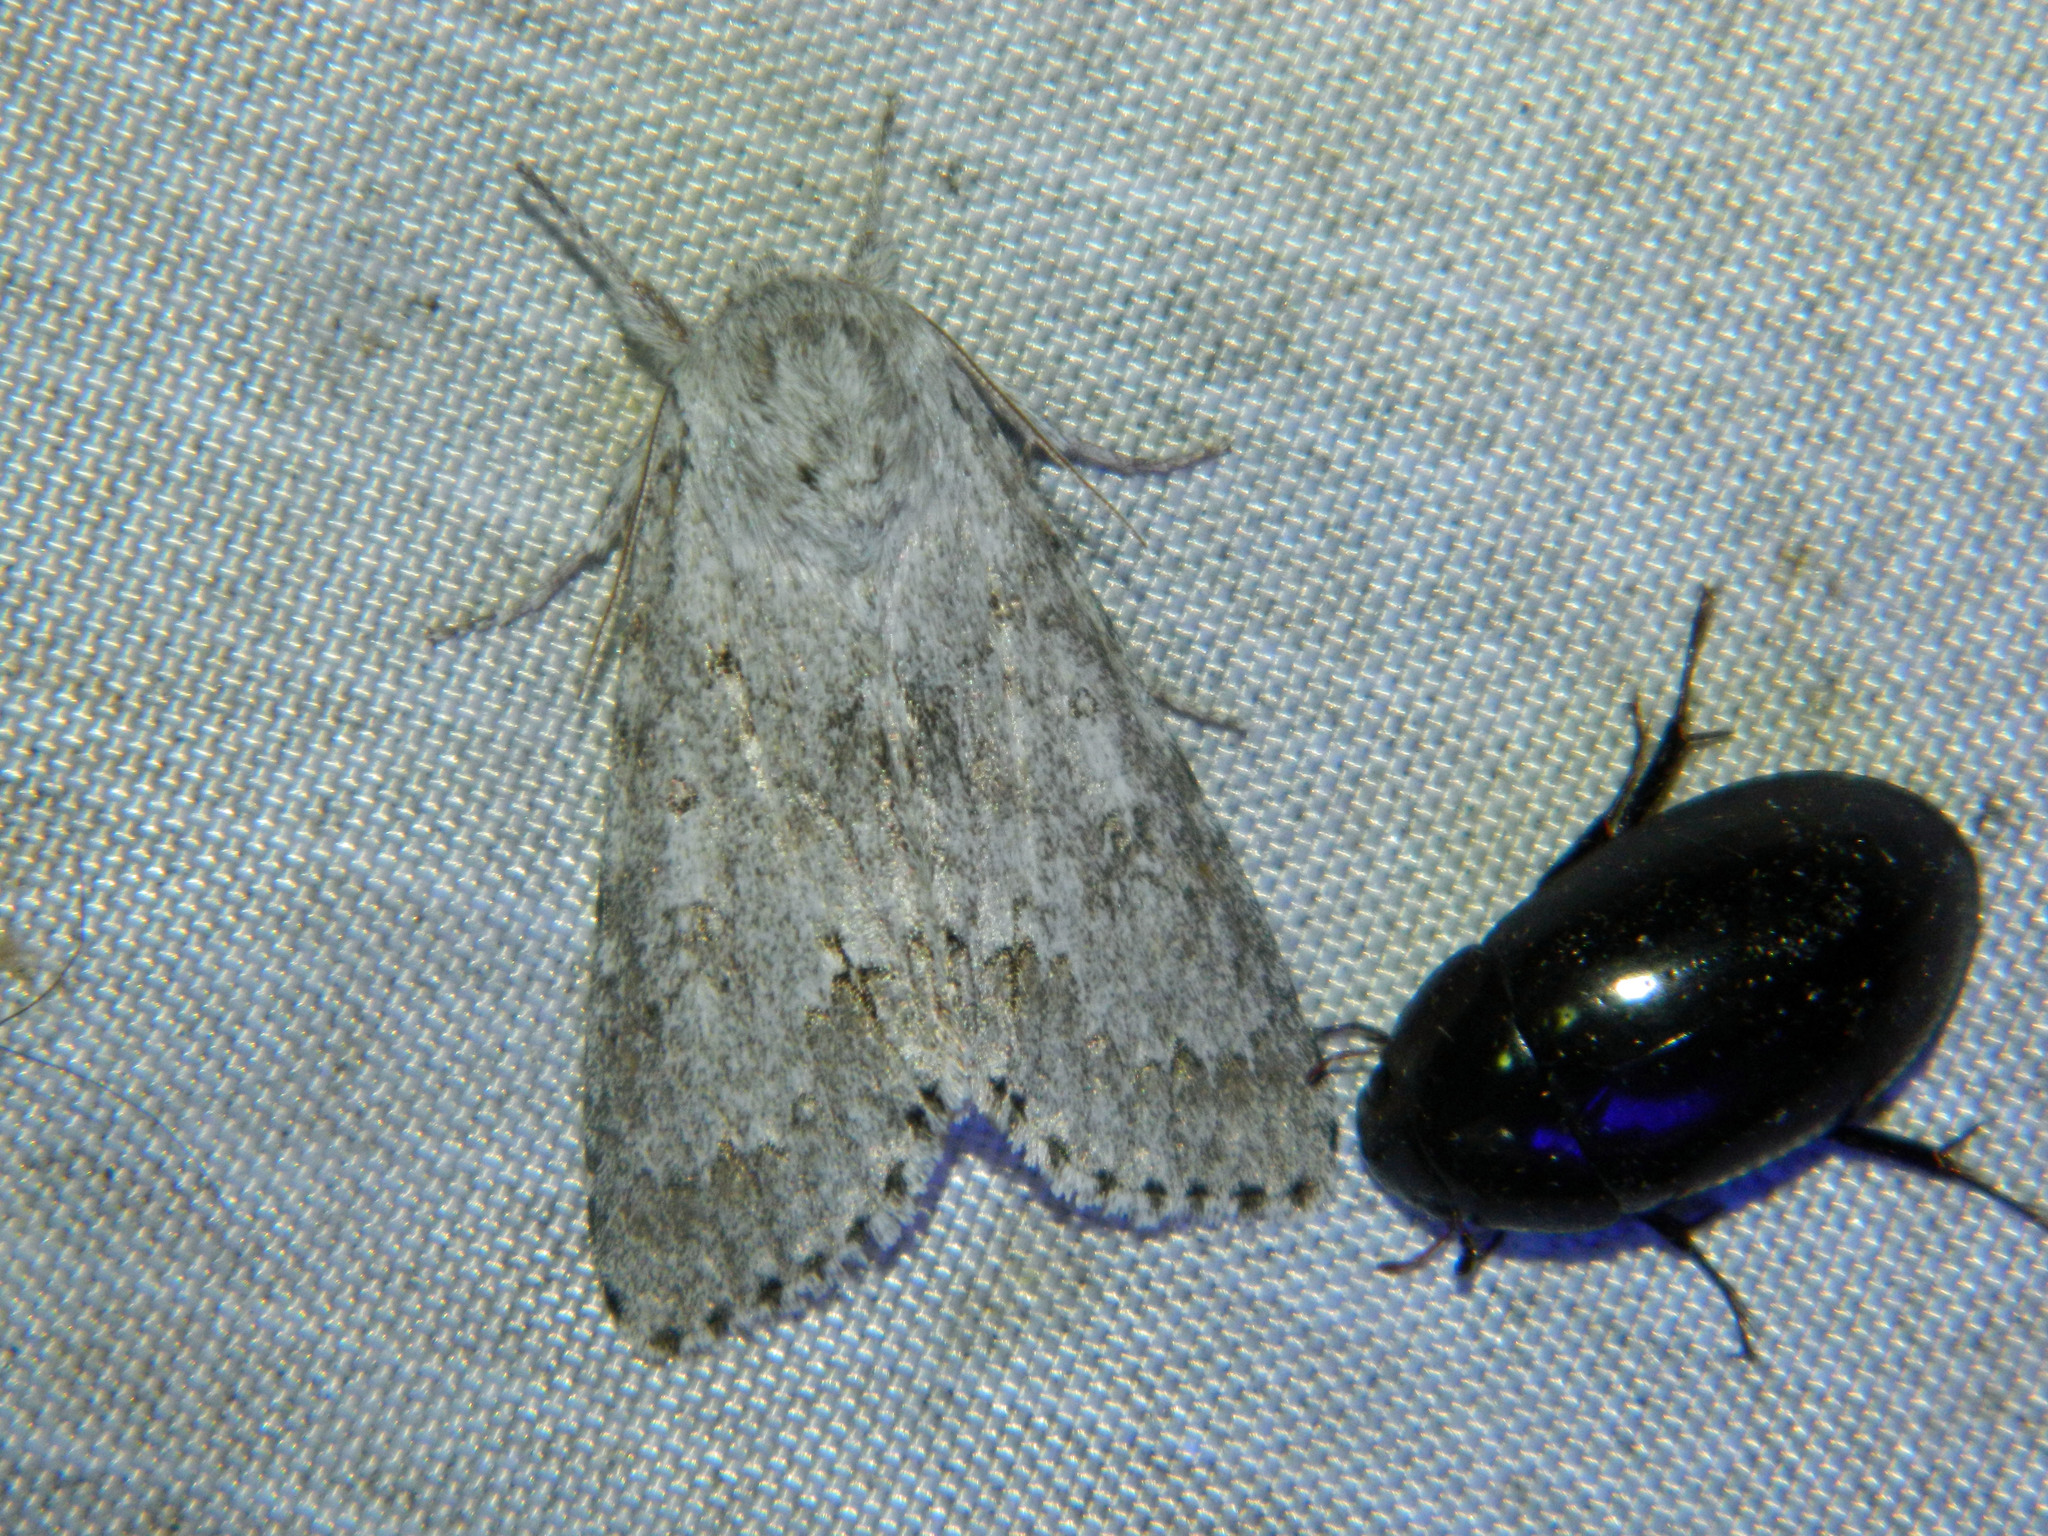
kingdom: Animalia
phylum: Arthropoda
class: Insecta
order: Lepidoptera
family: Noctuidae
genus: Acronicta
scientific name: Acronicta insita
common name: Large gray dagger
